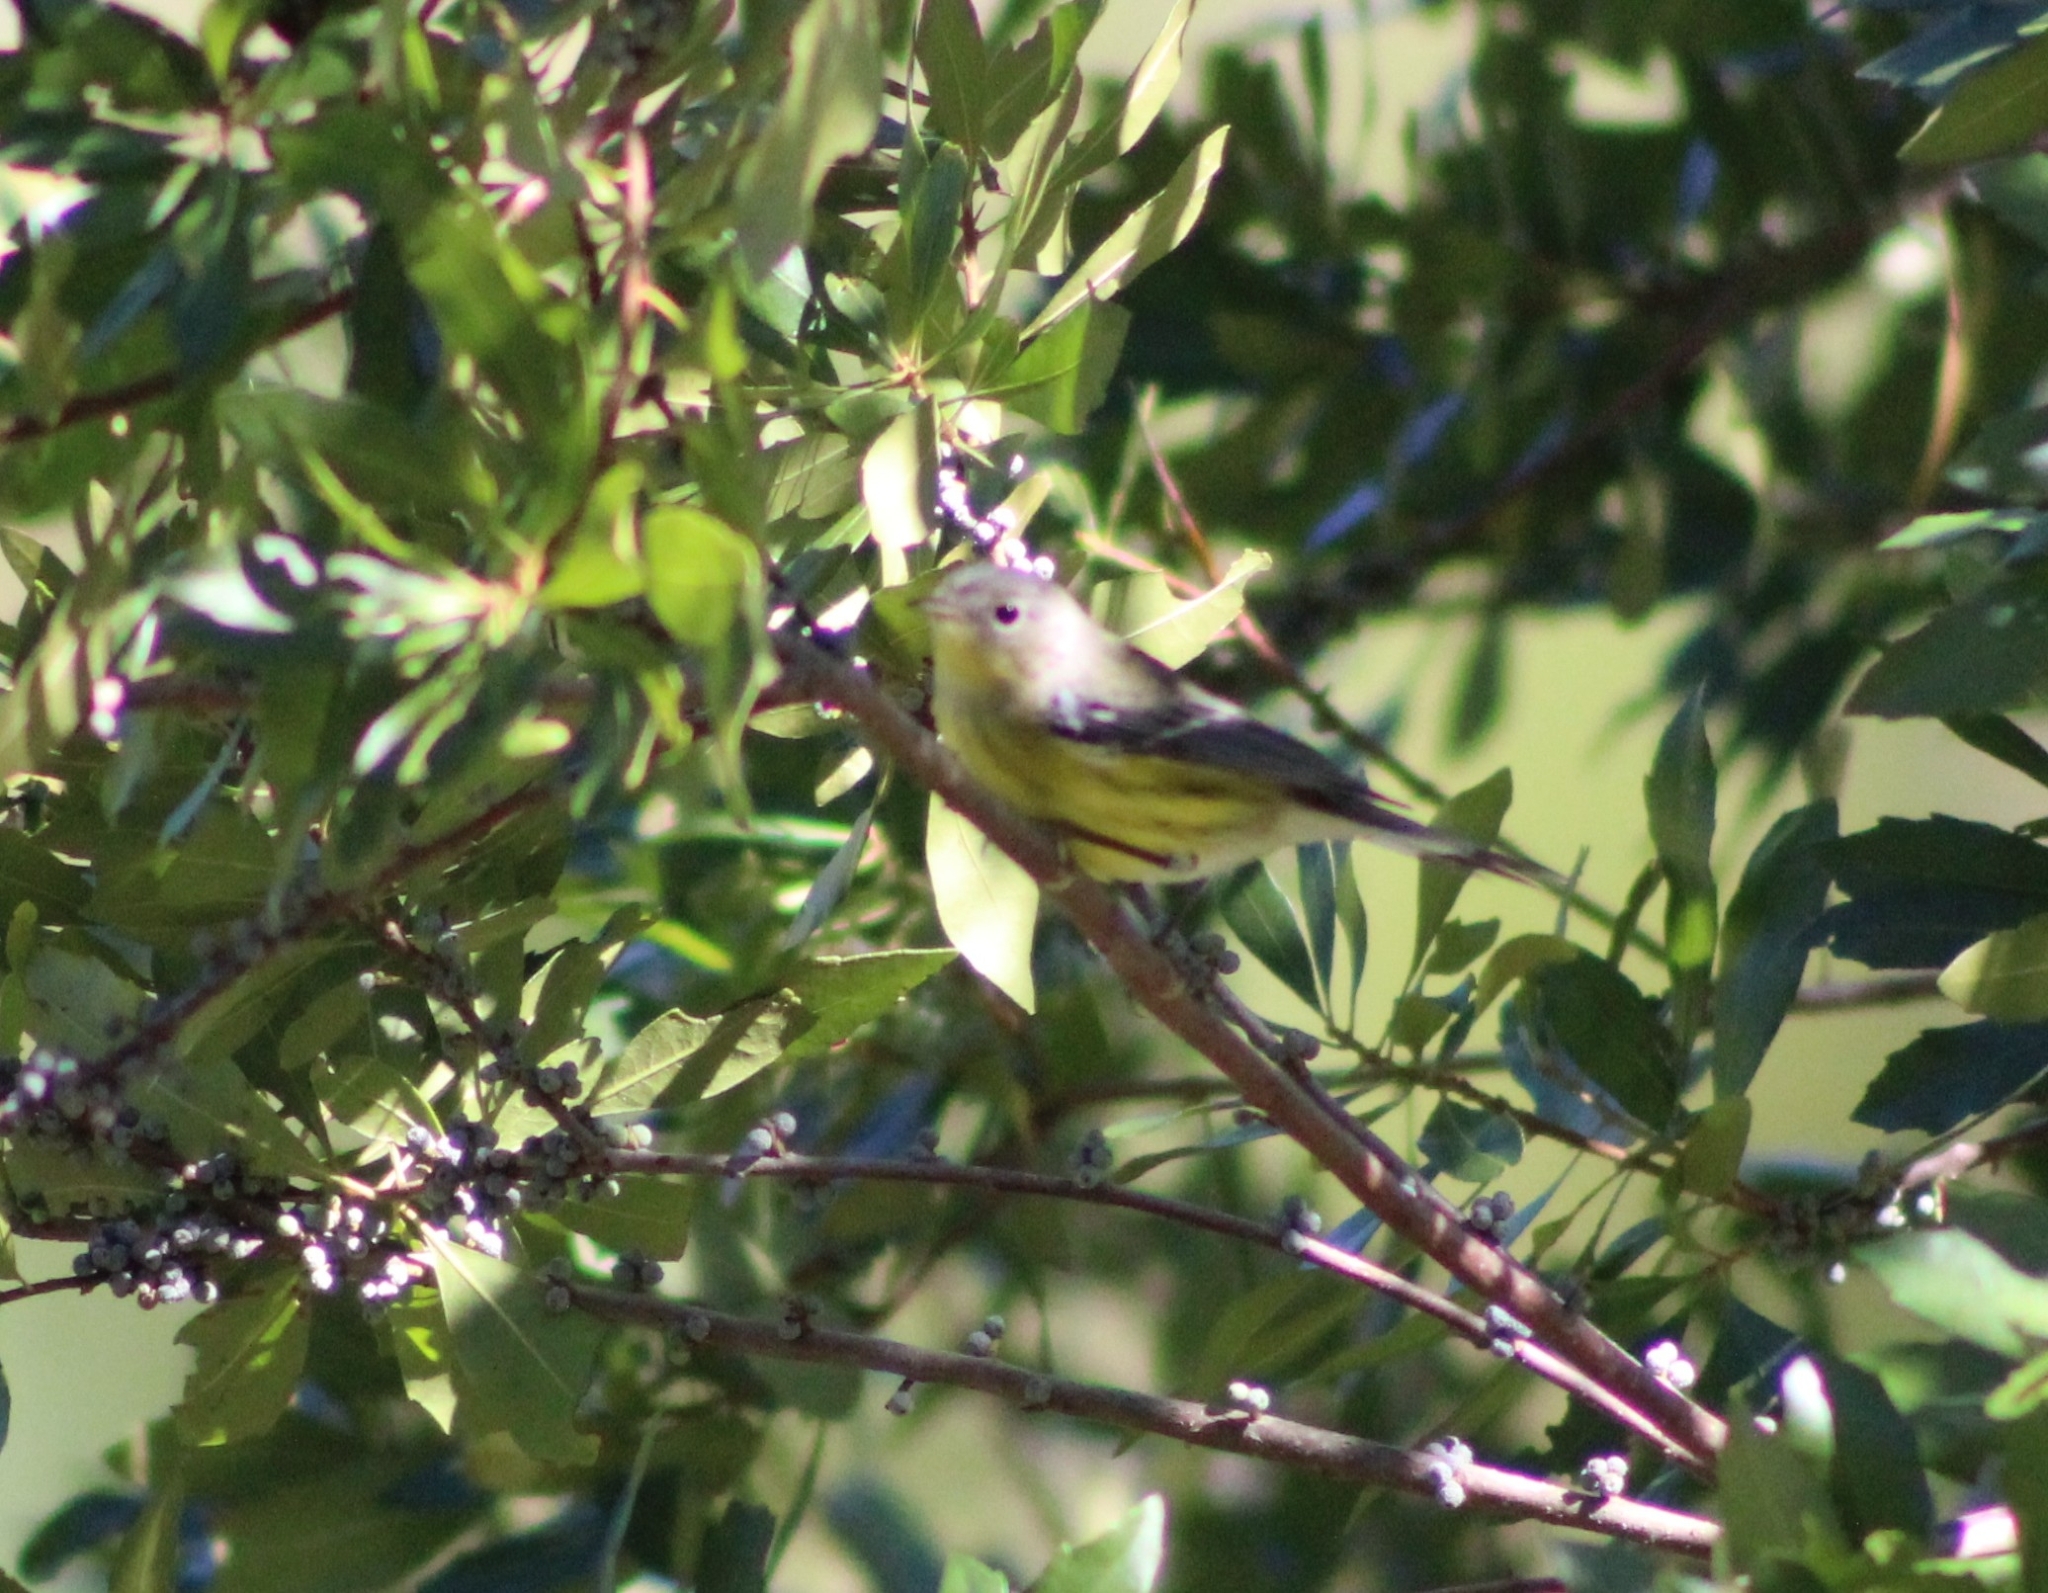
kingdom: Animalia
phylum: Chordata
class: Aves
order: Passeriformes
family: Parulidae
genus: Setophaga
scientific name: Setophaga magnolia
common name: Magnolia warbler
